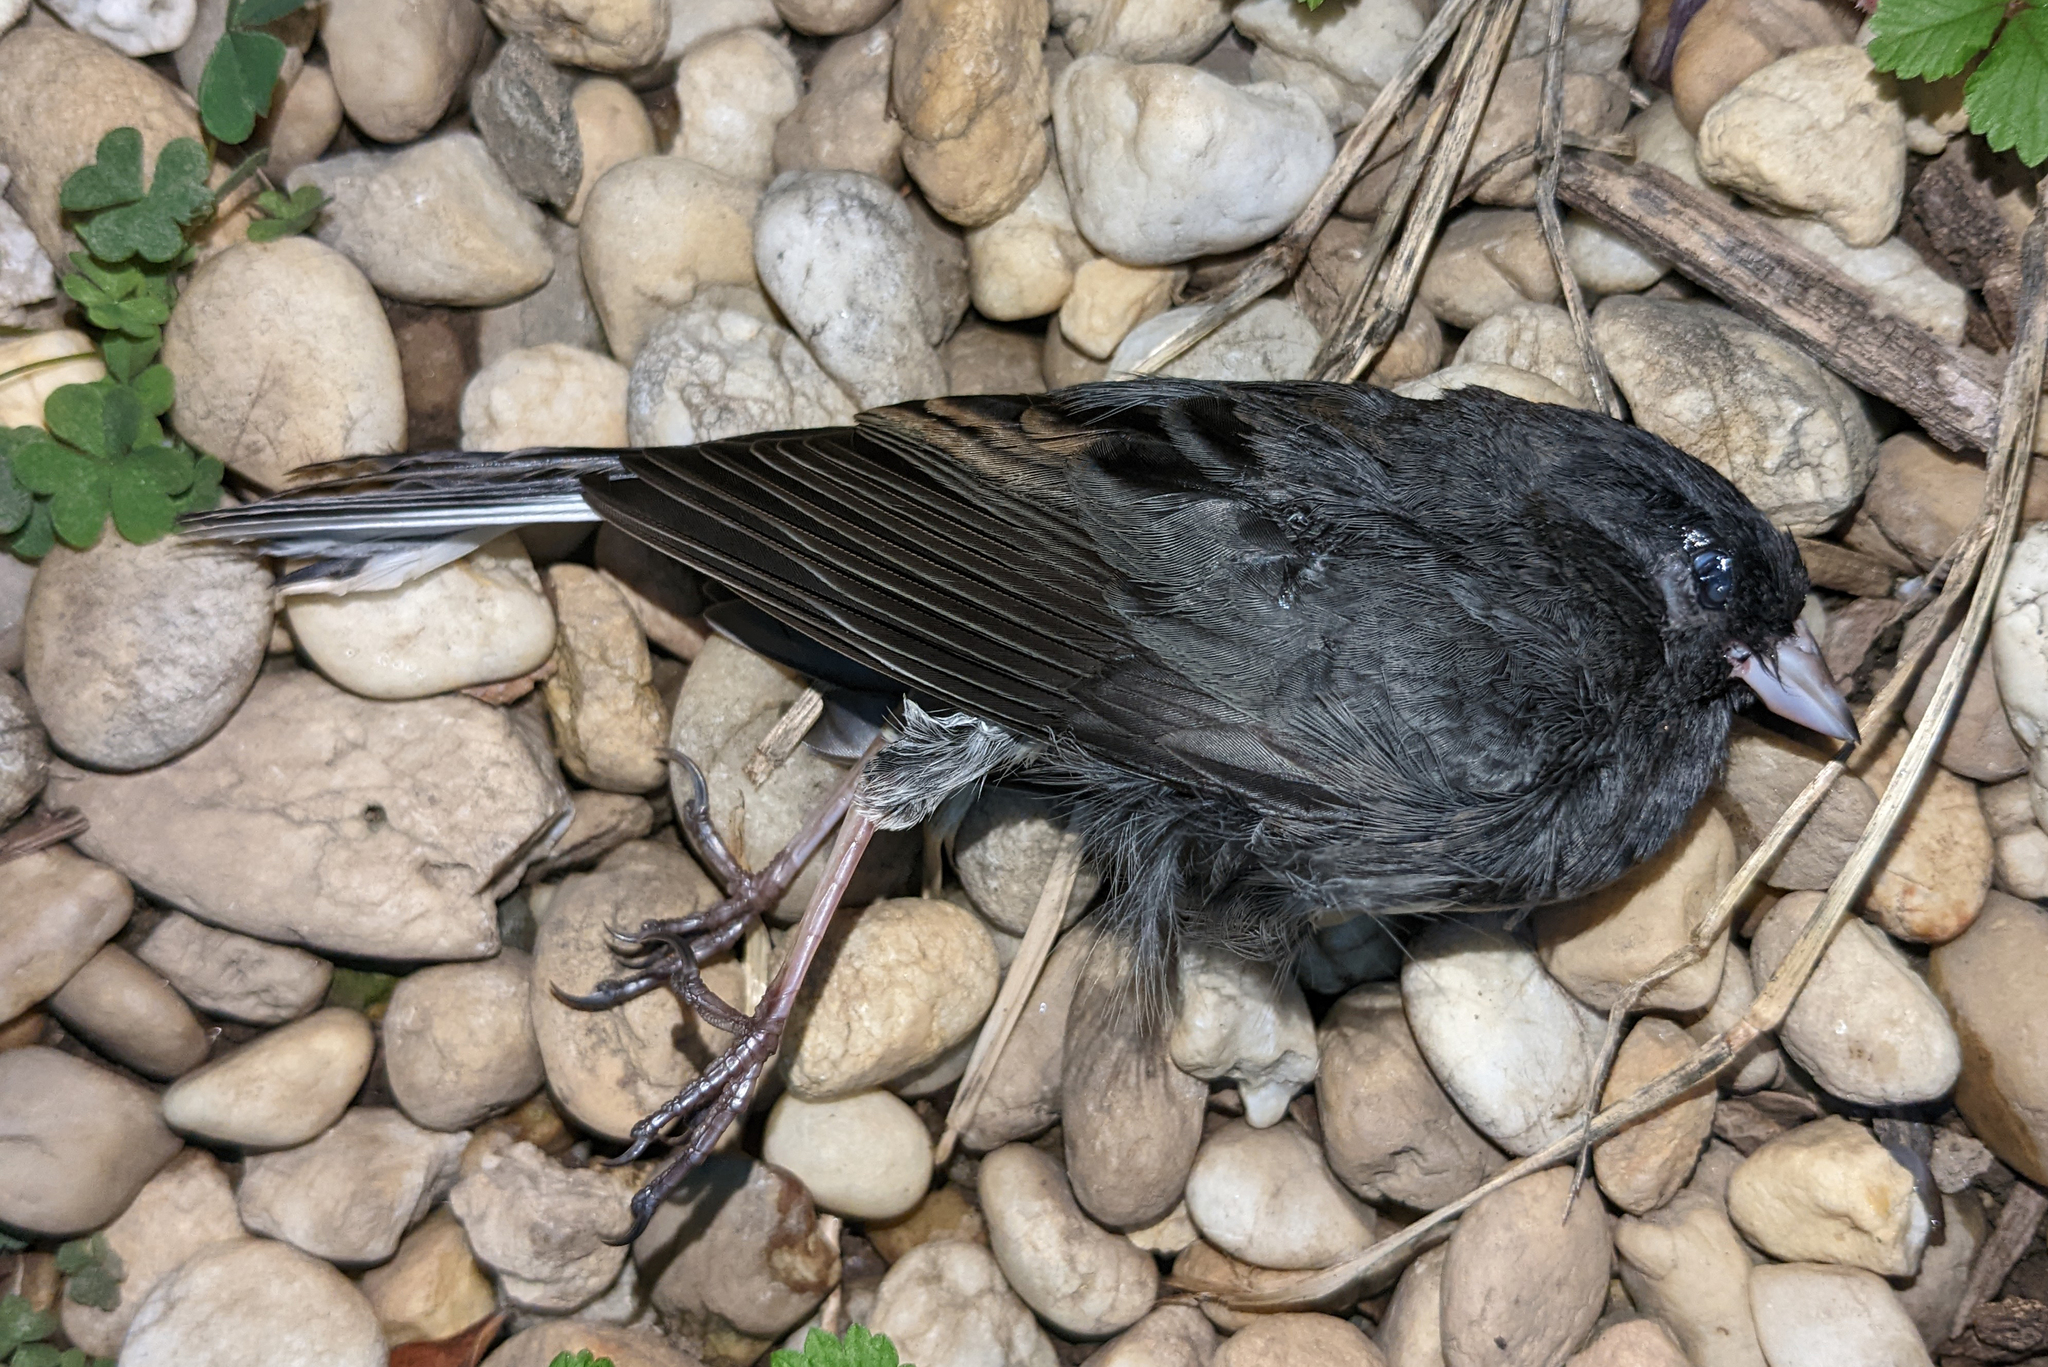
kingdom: Animalia
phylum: Chordata
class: Aves
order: Passeriformes
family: Passerellidae
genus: Junco
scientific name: Junco hyemalis
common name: Dark-eyed junco
